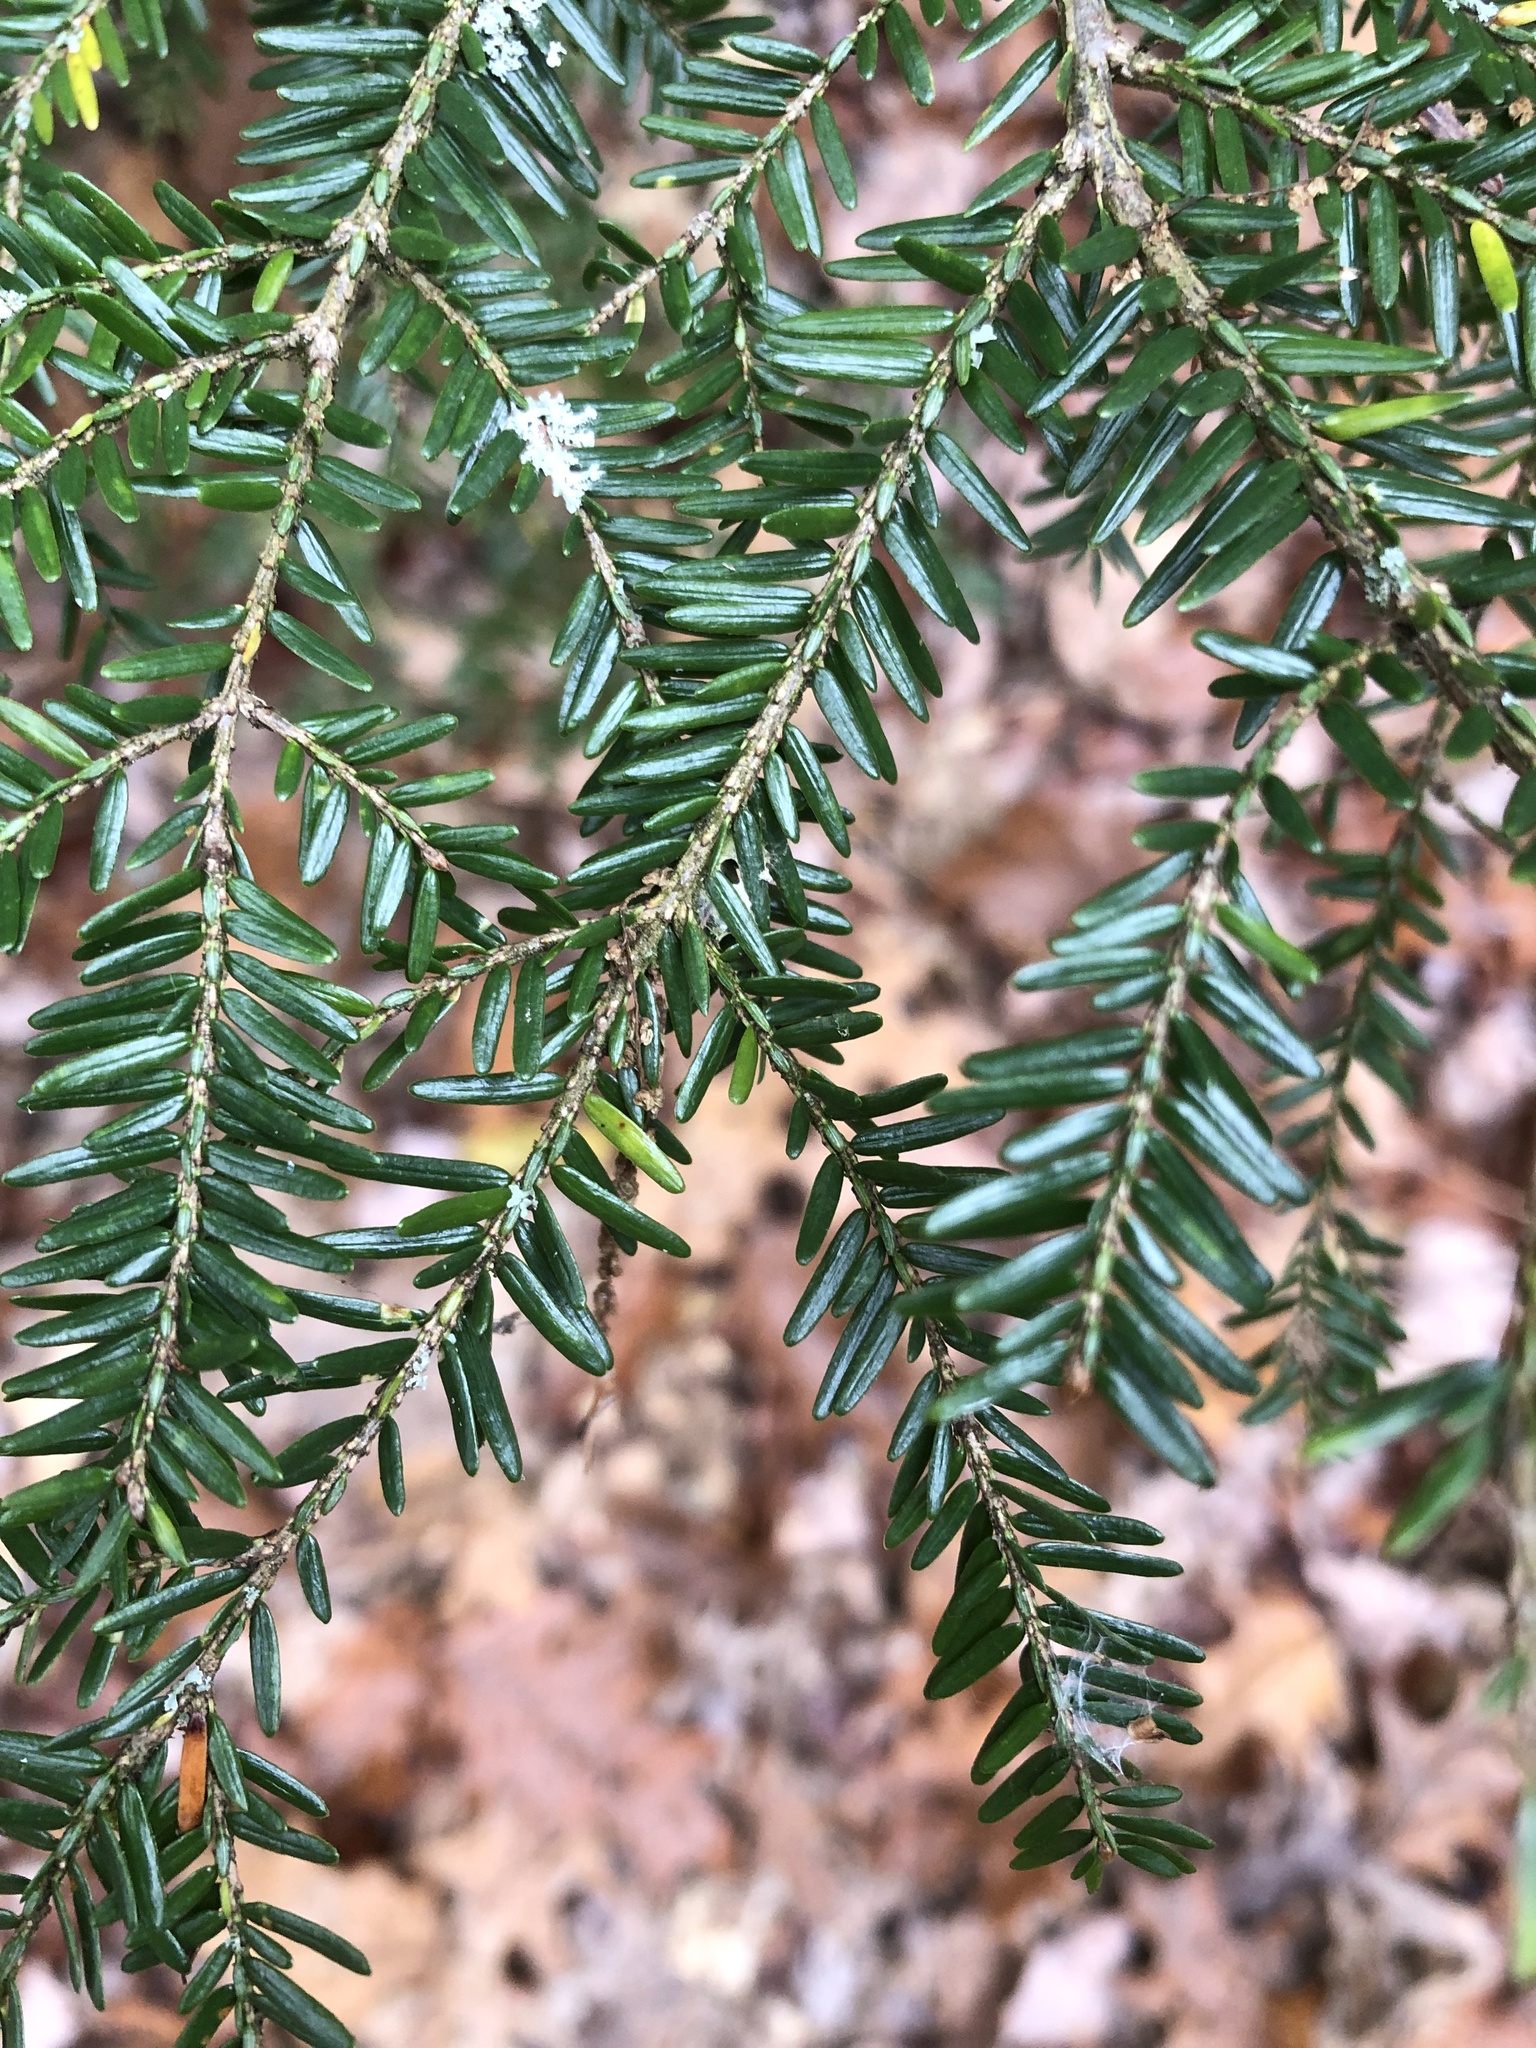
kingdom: Plantae
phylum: Tracheophyta
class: Pinopsida
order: Pinales
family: Pinaceae
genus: Tsuga
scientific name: Tsuga canadensis
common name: Eastern hemlock
